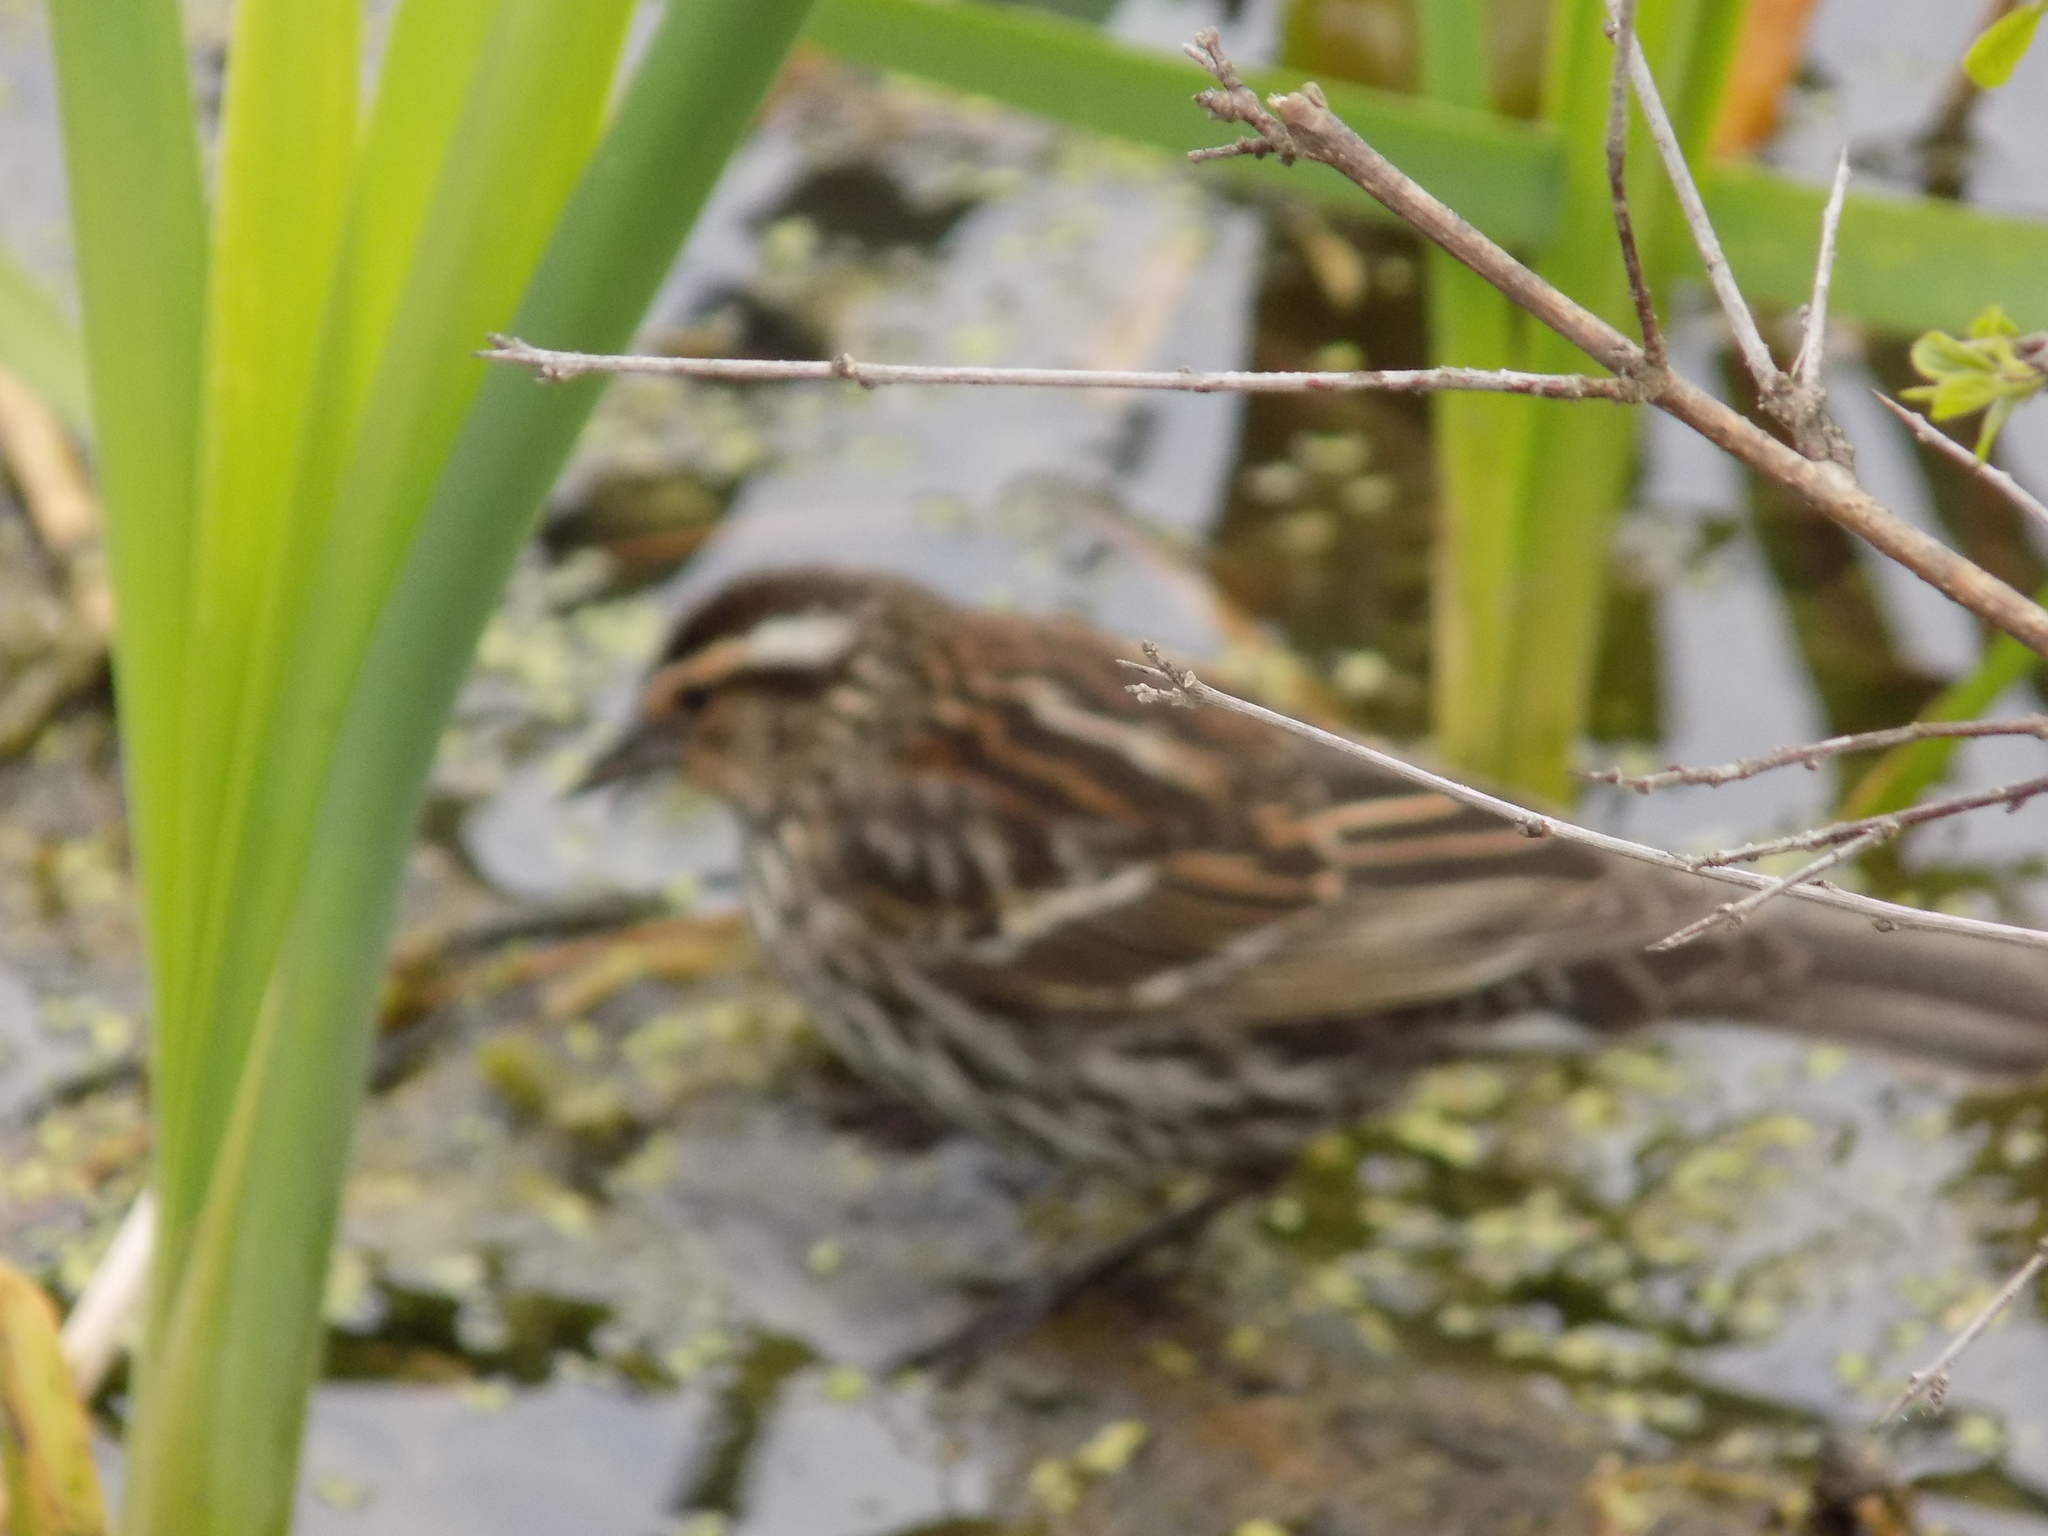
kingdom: Animalia
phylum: Chordata
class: Aves
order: Passeriformes
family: Icteridae
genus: Agelaius
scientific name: Agelaius phoeniceus
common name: Red-winged blackbird
